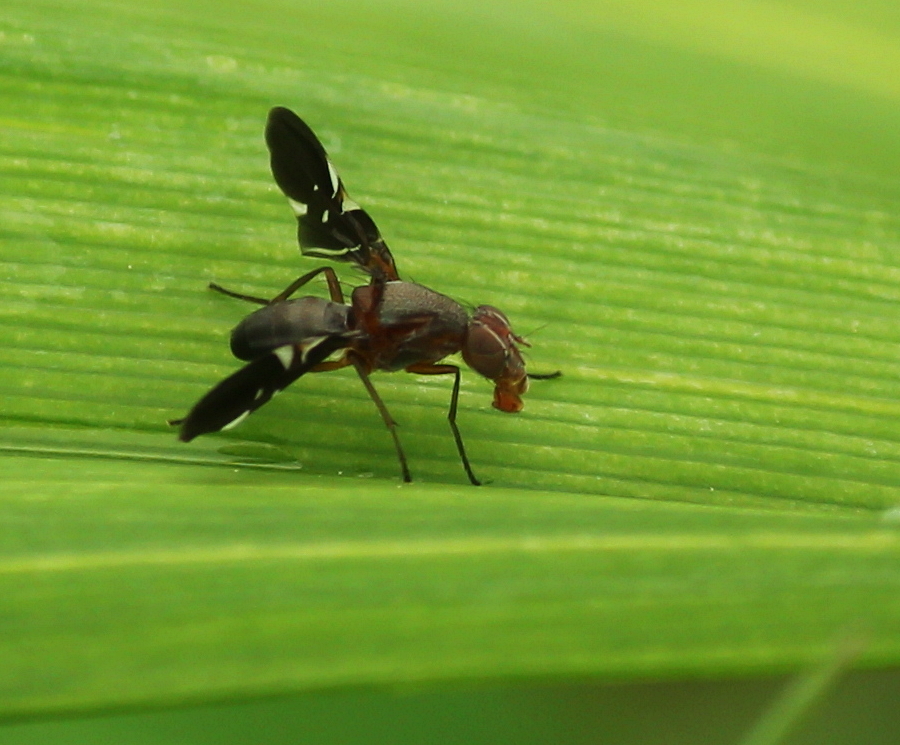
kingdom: Animalia
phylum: Arthropoda
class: Insecta
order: Diptera
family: Ulidiidae
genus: Delphinia
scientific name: Delphinia picta
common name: Common picture-winged fly
